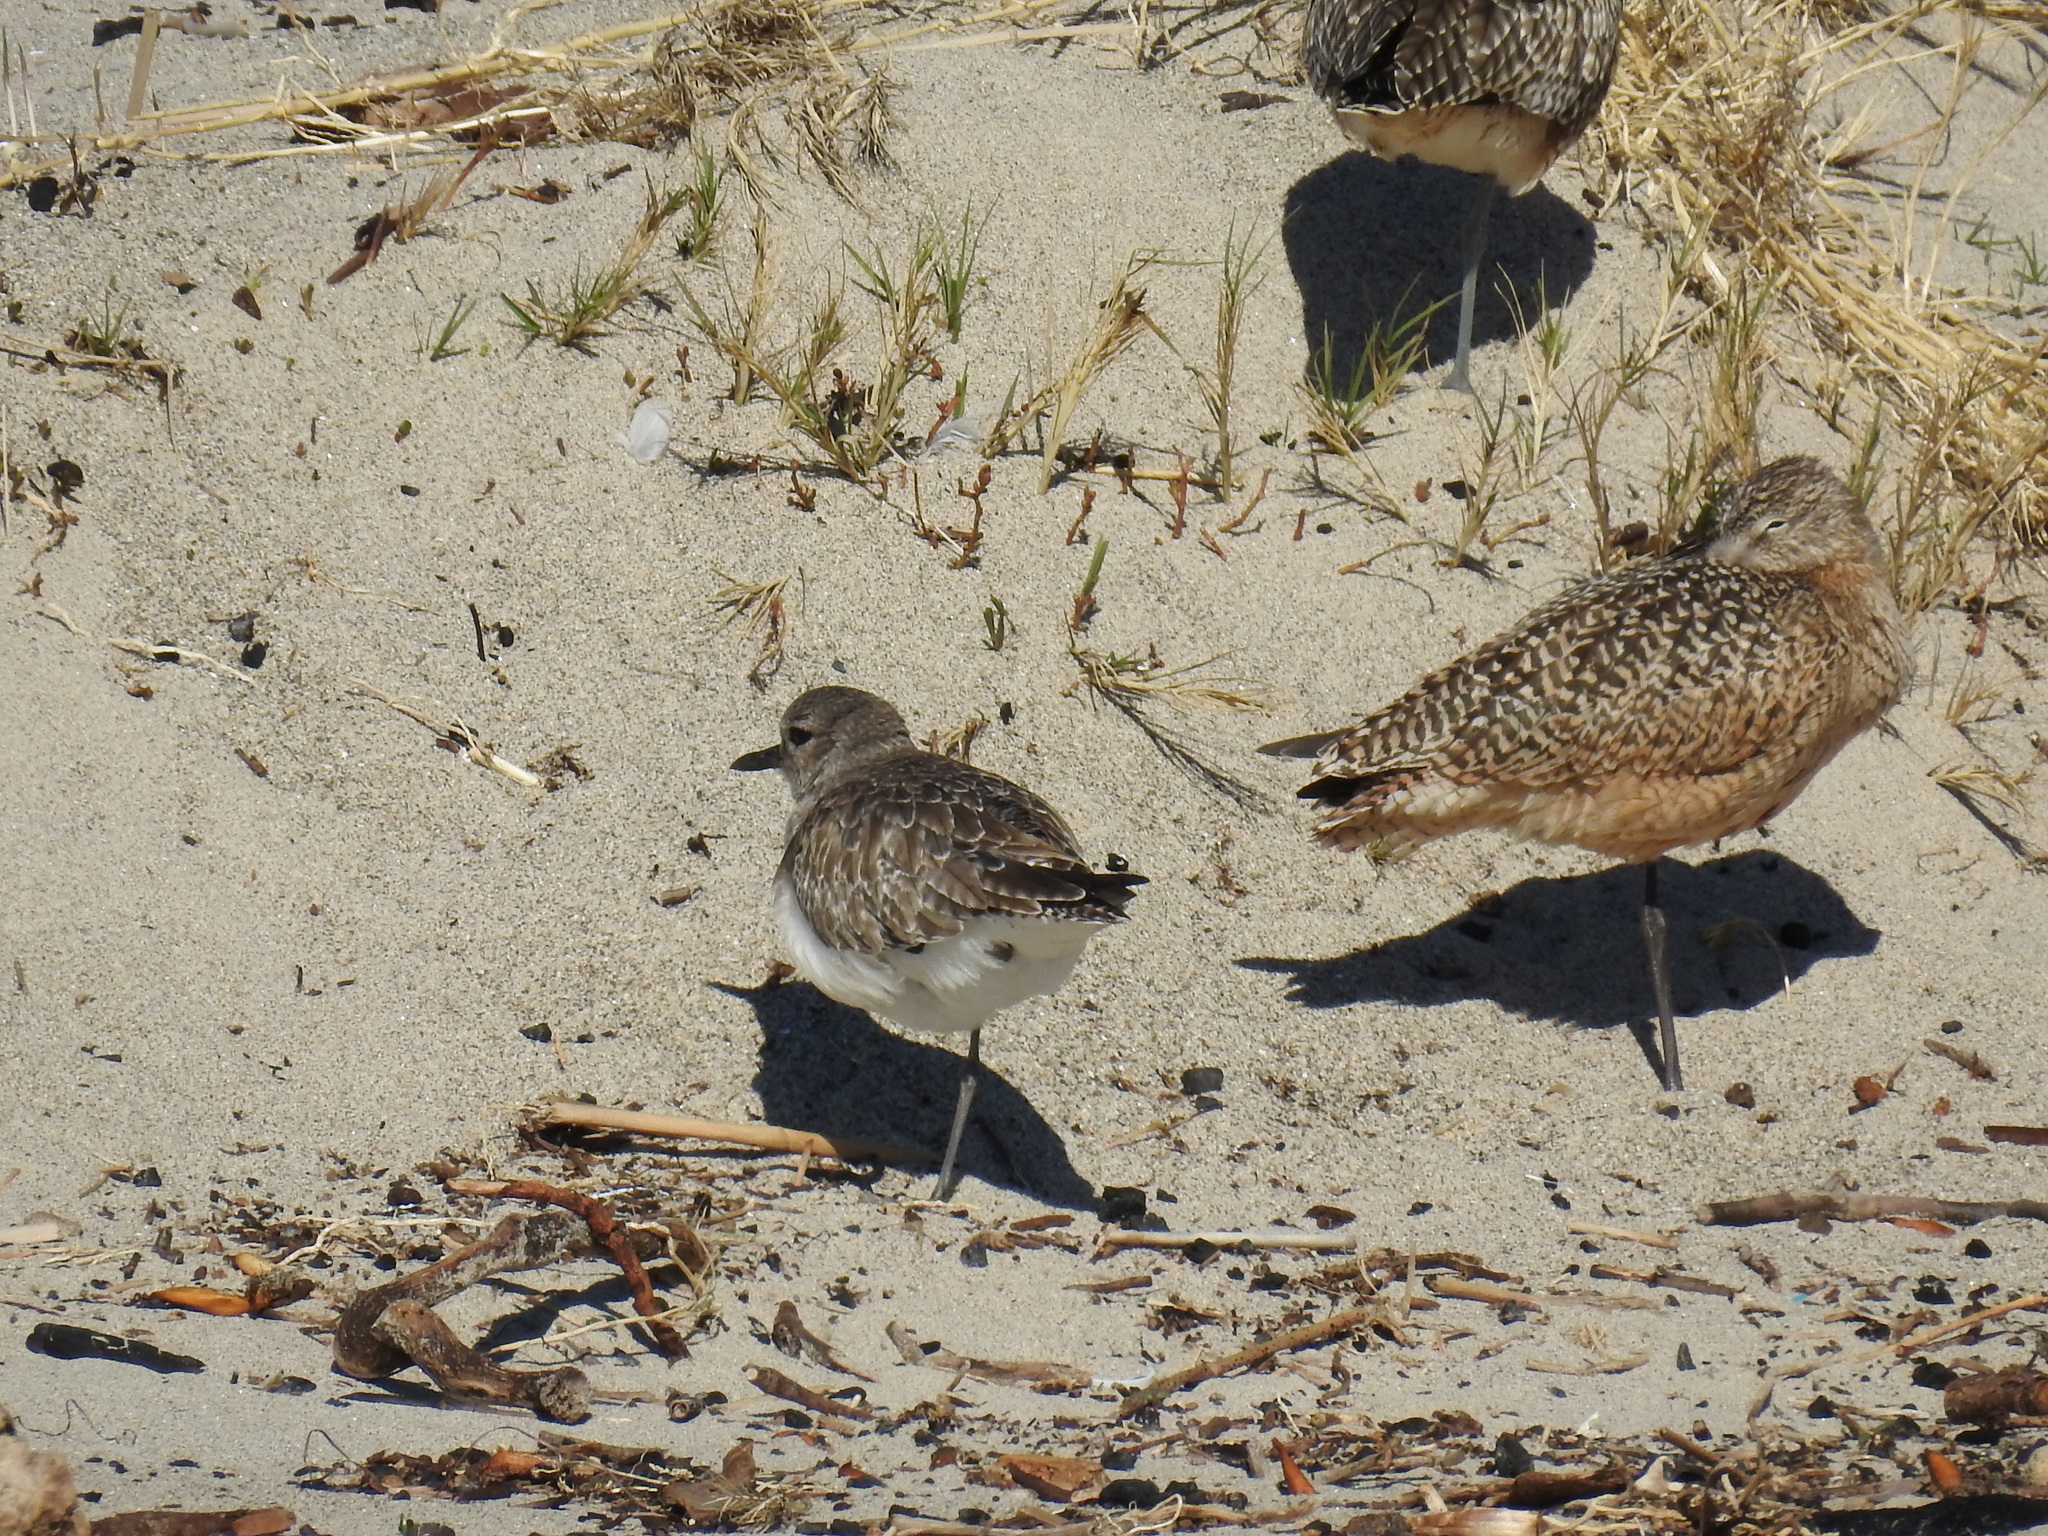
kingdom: Animalia
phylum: Chordata
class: Aves
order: Charadriiformes
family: Charadriidae
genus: Pluvialis
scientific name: Pluvialis squatarola
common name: Grey plover
